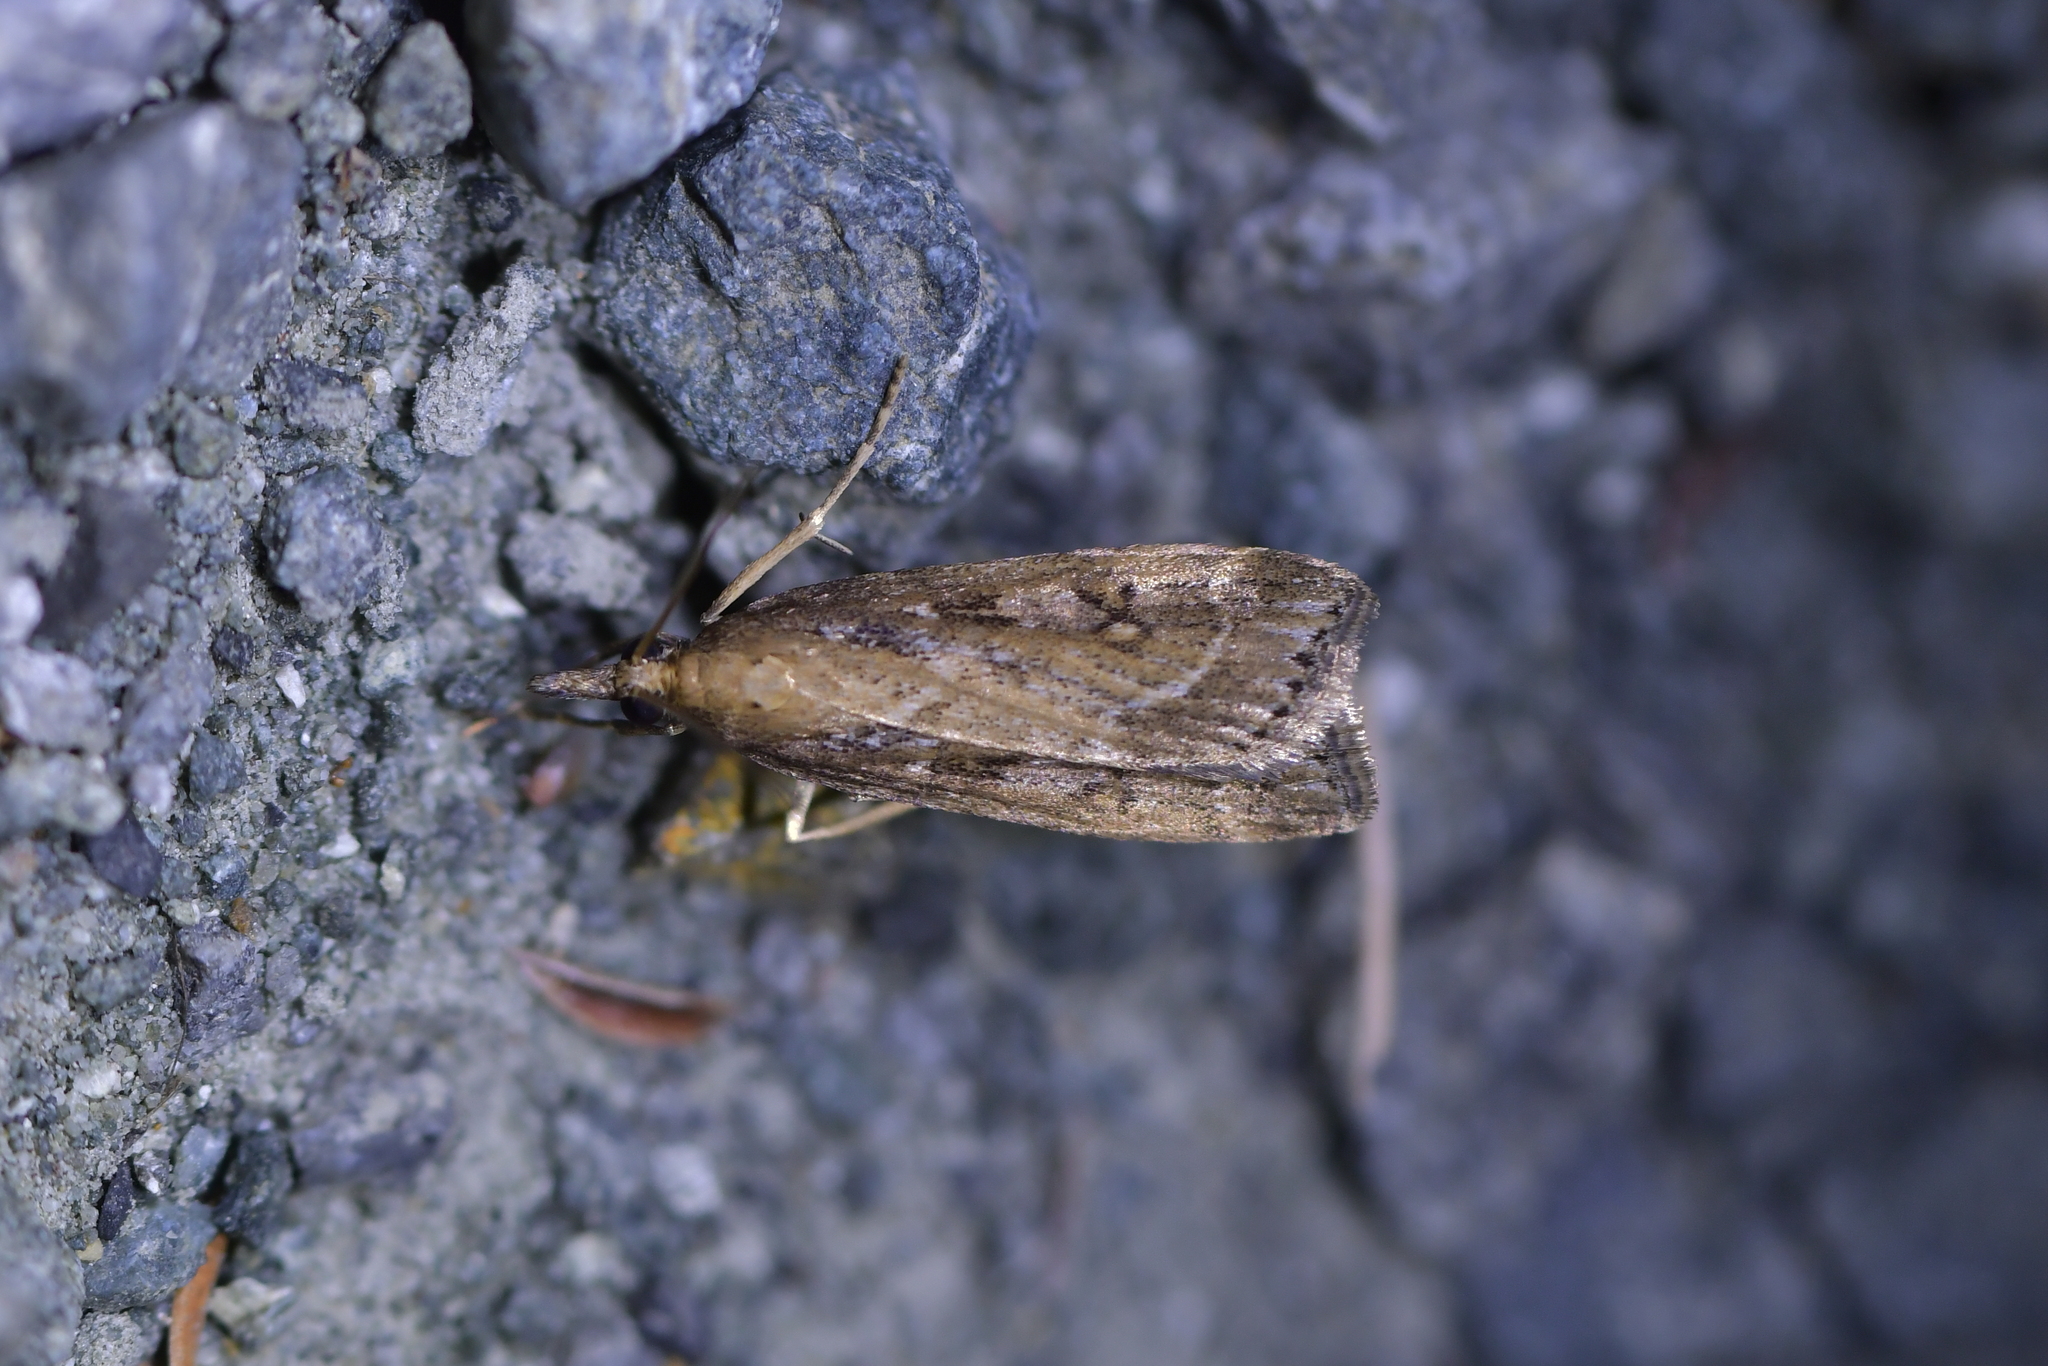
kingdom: Animalia
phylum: Arthropoda
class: Insecta
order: Lepidoptera
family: Crambidae
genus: Eudonia
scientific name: Eudonia octophora
